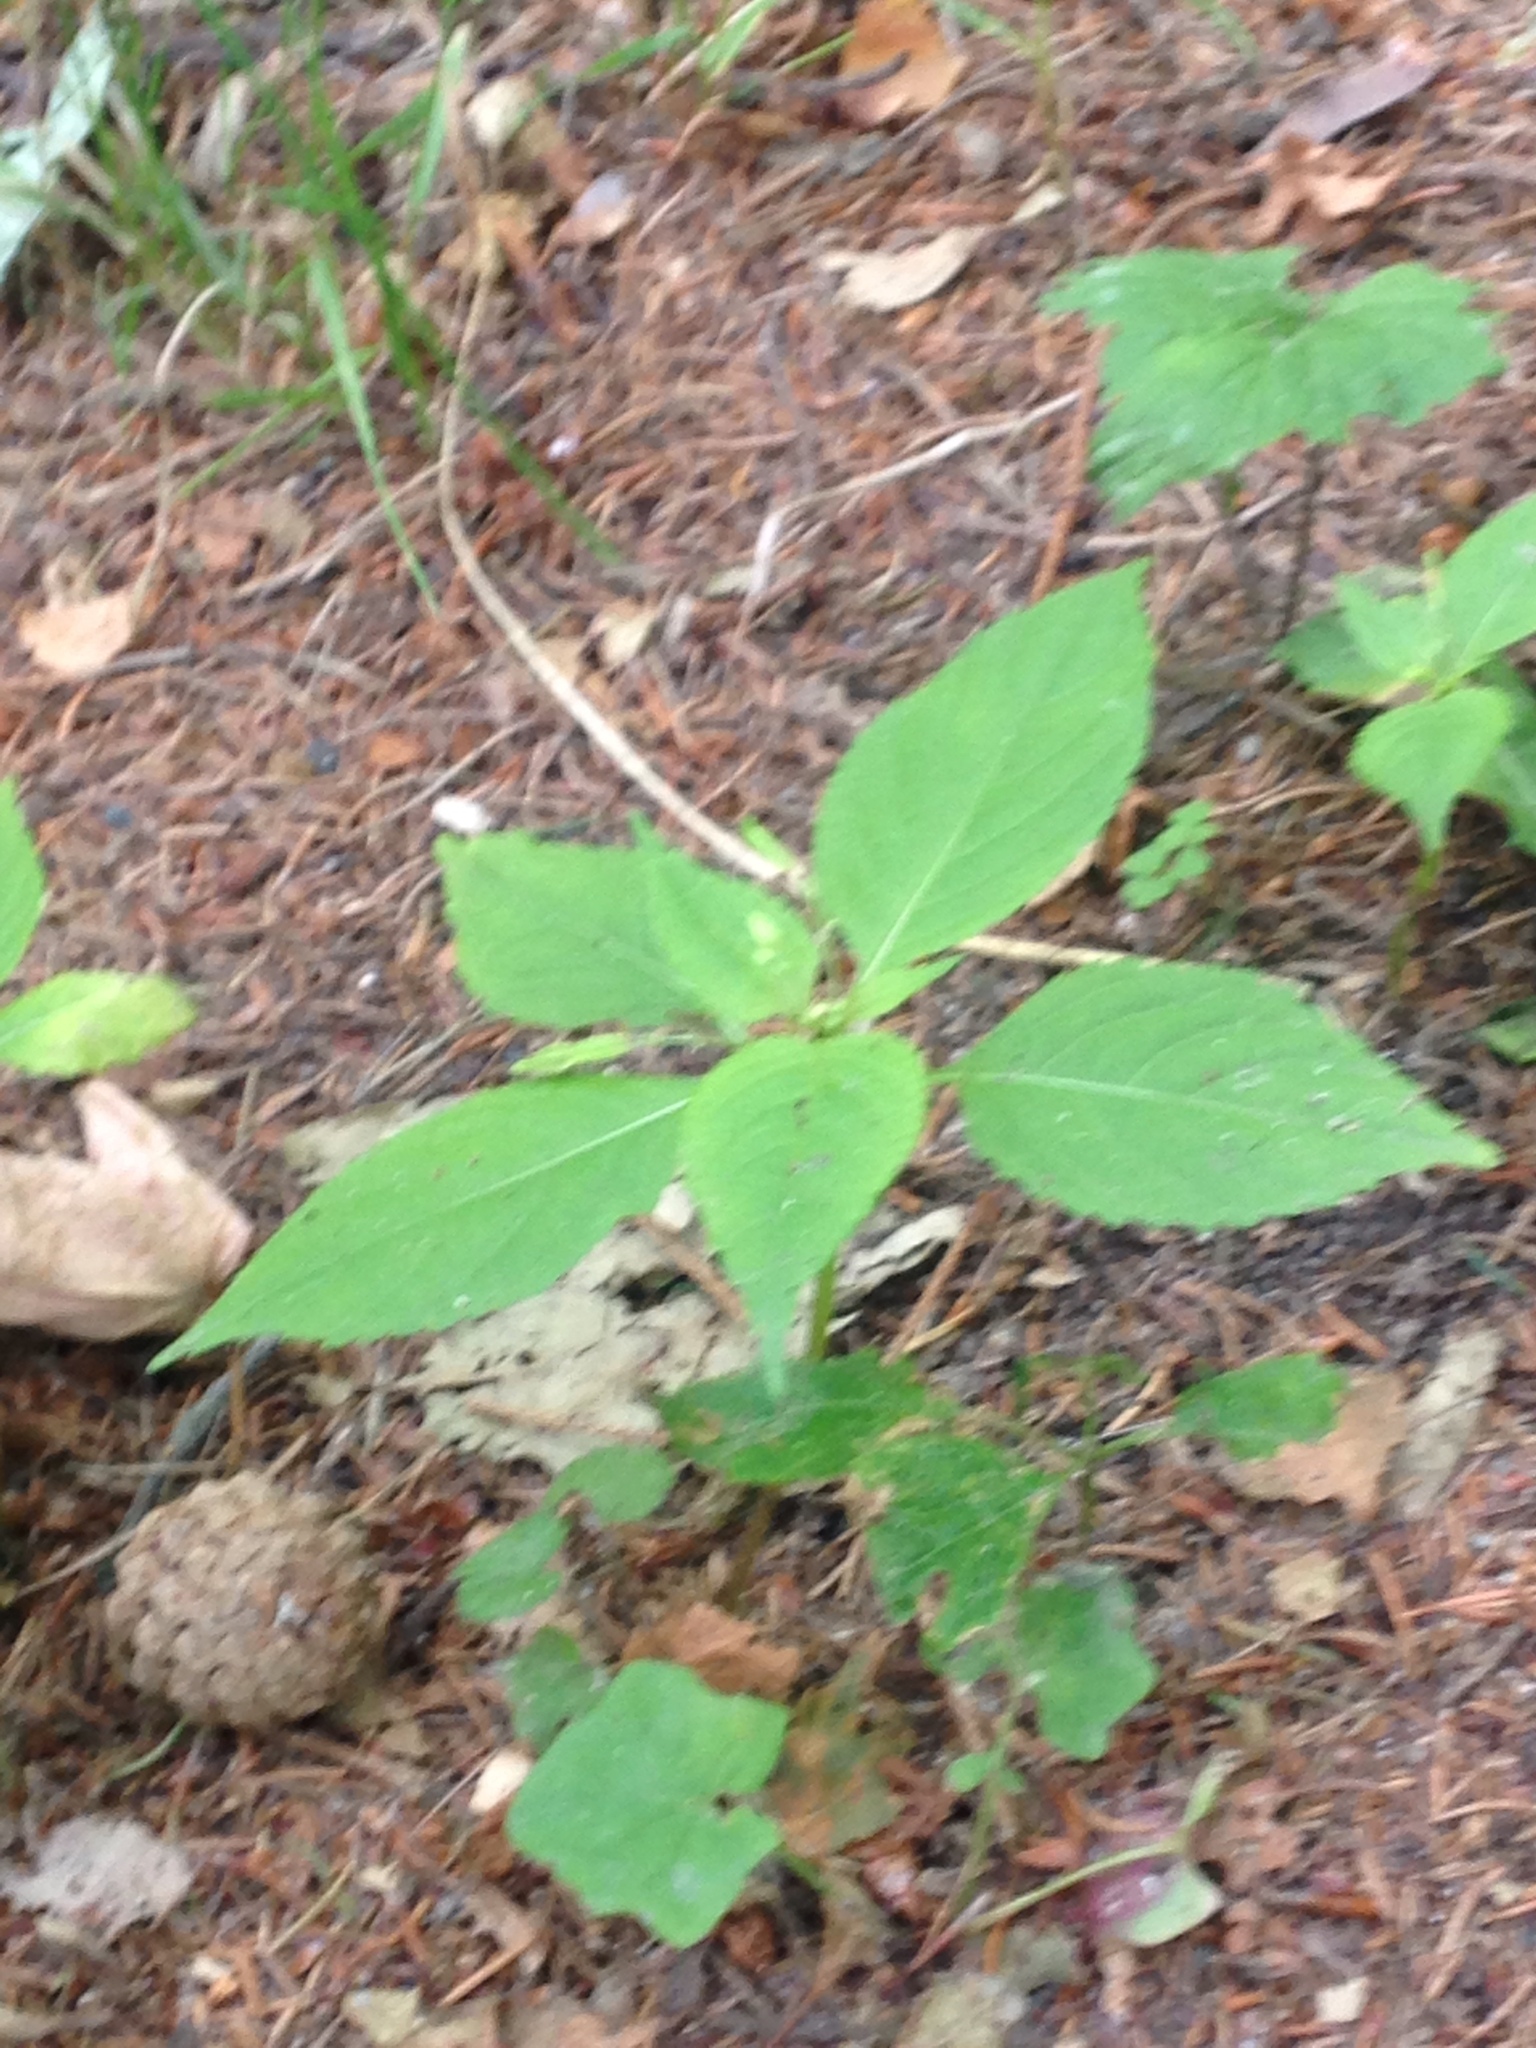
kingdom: Plantae
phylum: Tracheophyta
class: Magnoliopsida
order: Ericales
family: Balsaminaceae
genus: Impatiens
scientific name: Impatiens parviflora
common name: Small balsam
